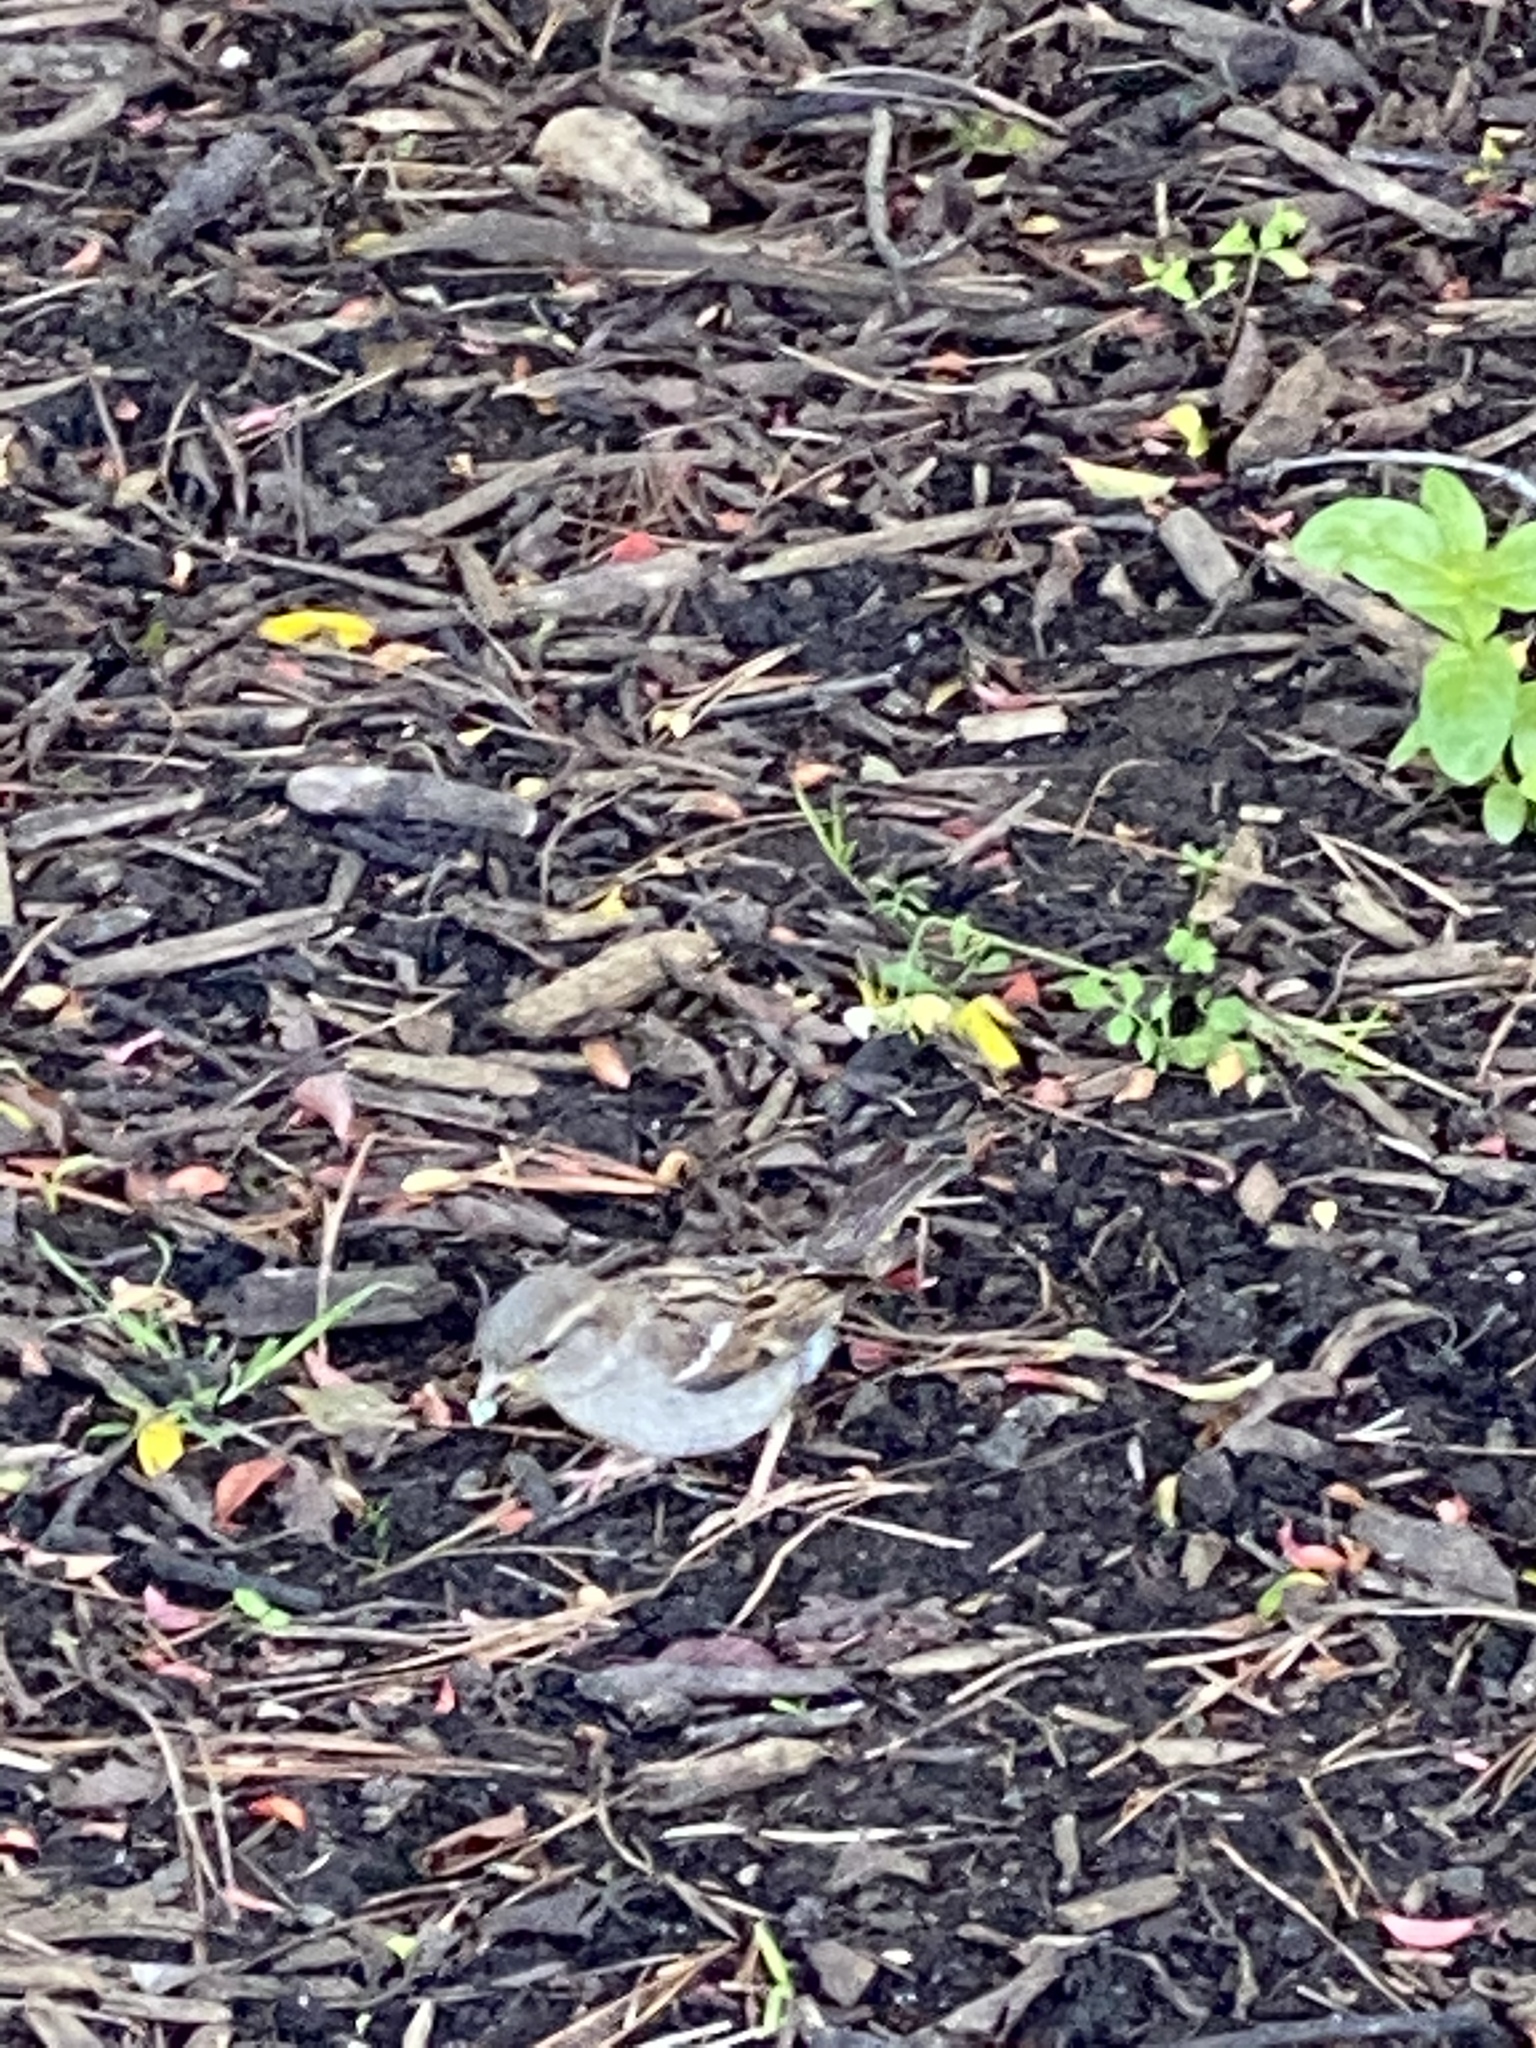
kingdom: Animalia
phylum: Chordata
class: Aves
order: Passeriformes
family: Passeridae
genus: Passer
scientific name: Passer domesticus
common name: House sparrow
